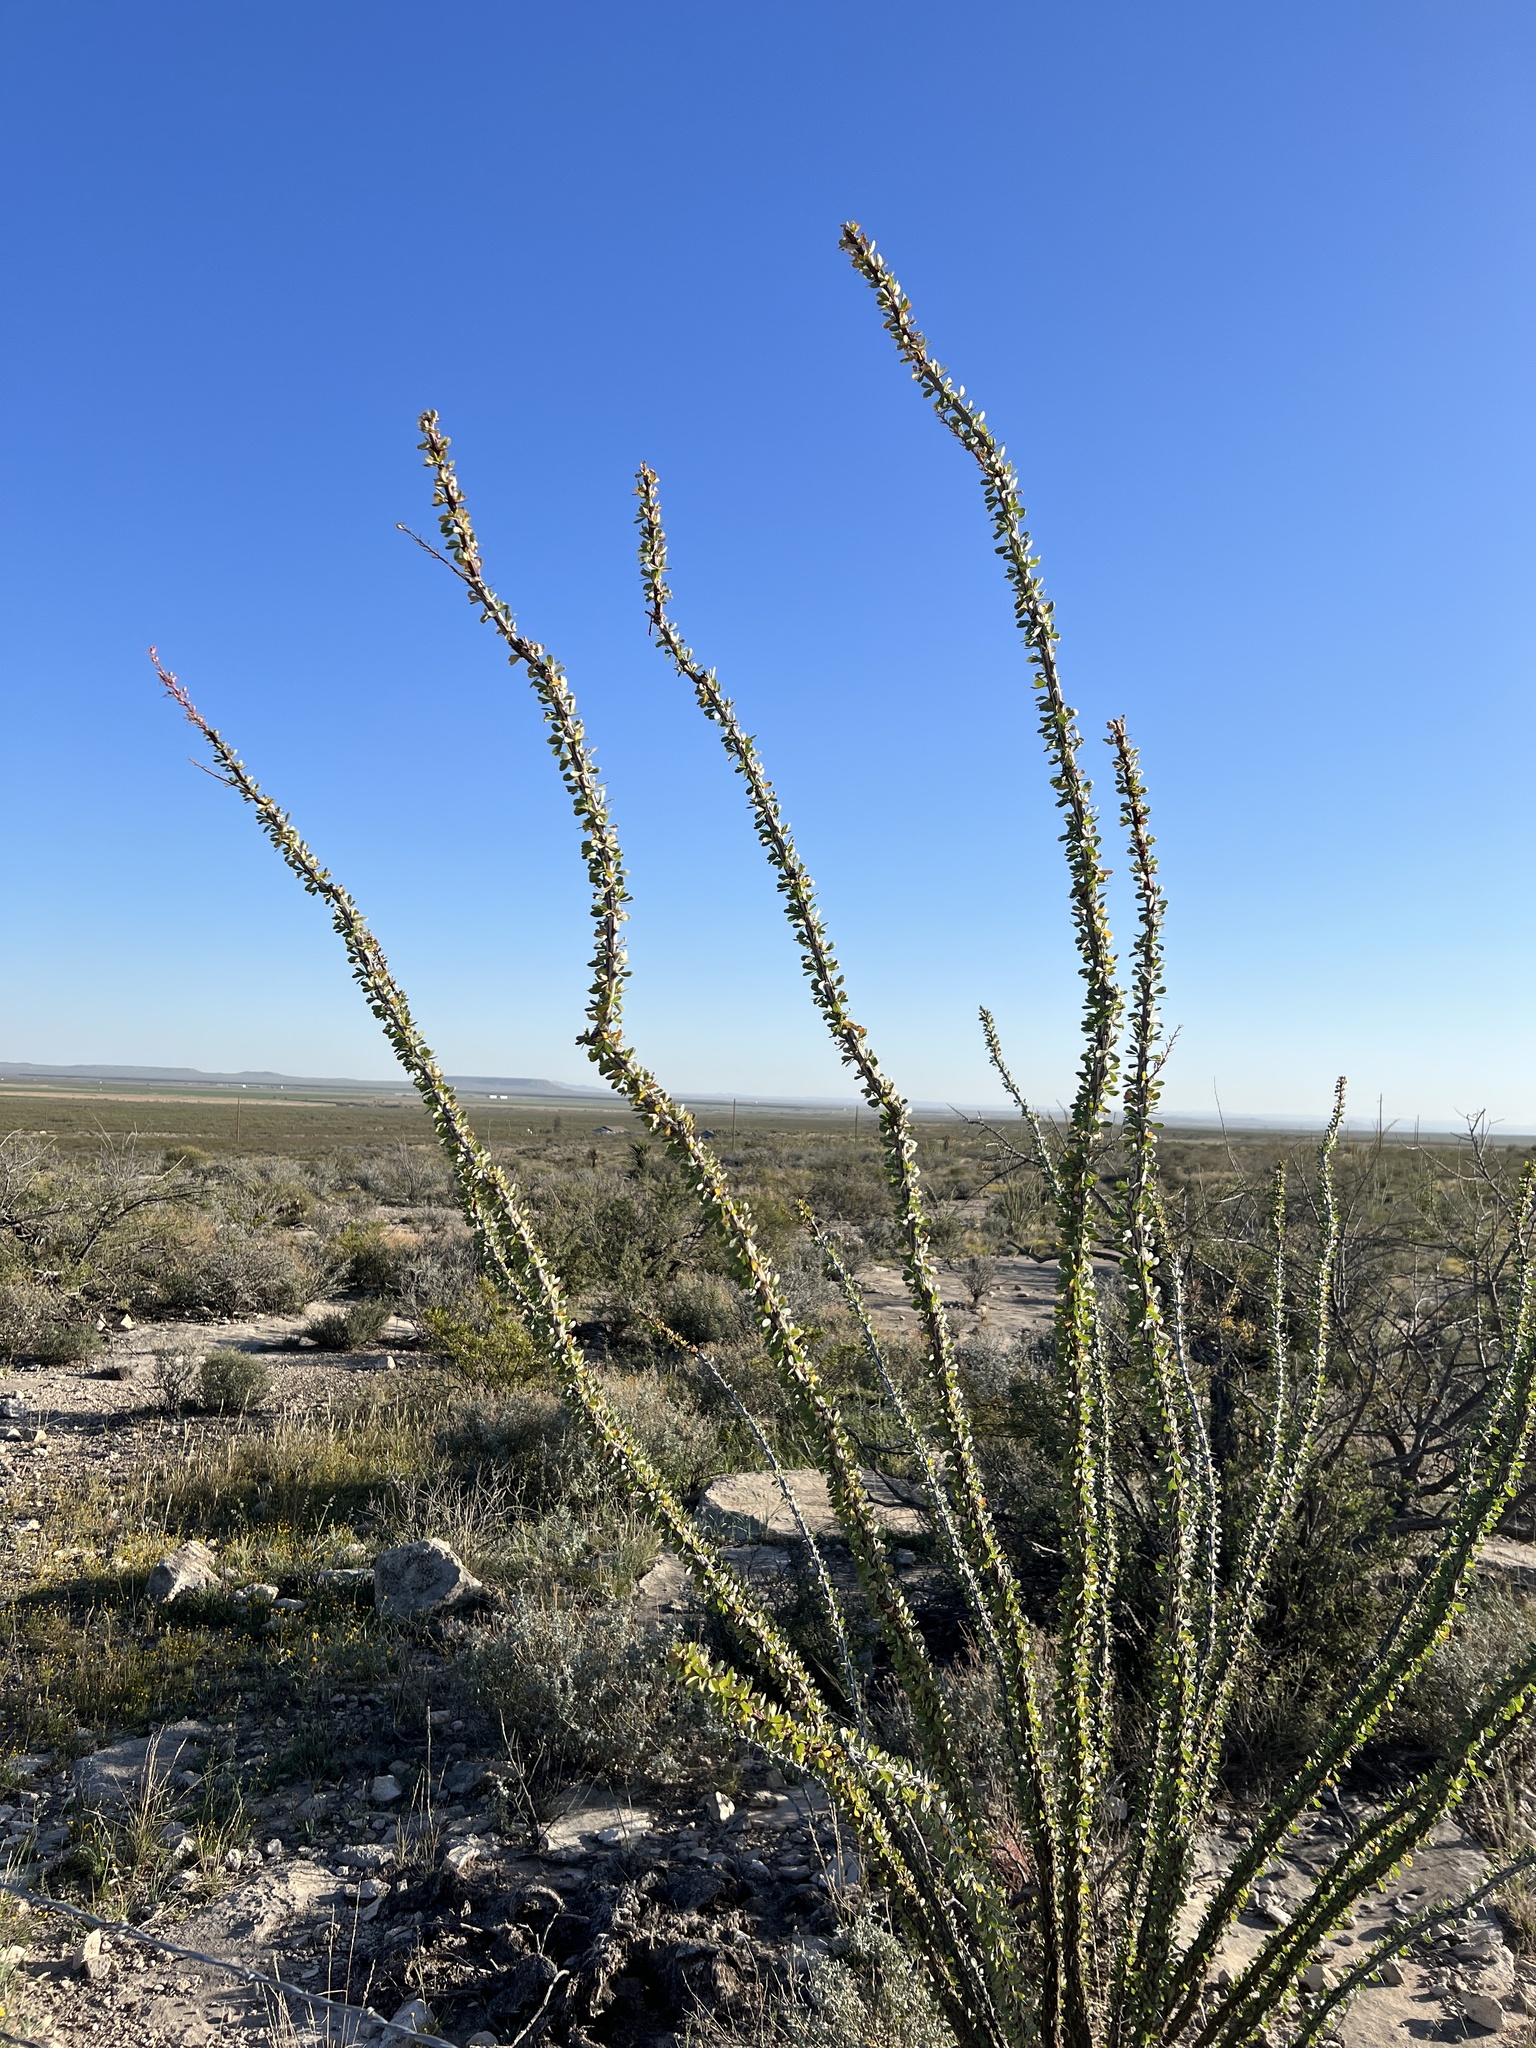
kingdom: Plantae
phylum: Tracheophyta
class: Magnoliopsida
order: Ericales
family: Fouquieriaceae
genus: Fouquieria
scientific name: Fouquieria splendens
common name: Vine-cactus
